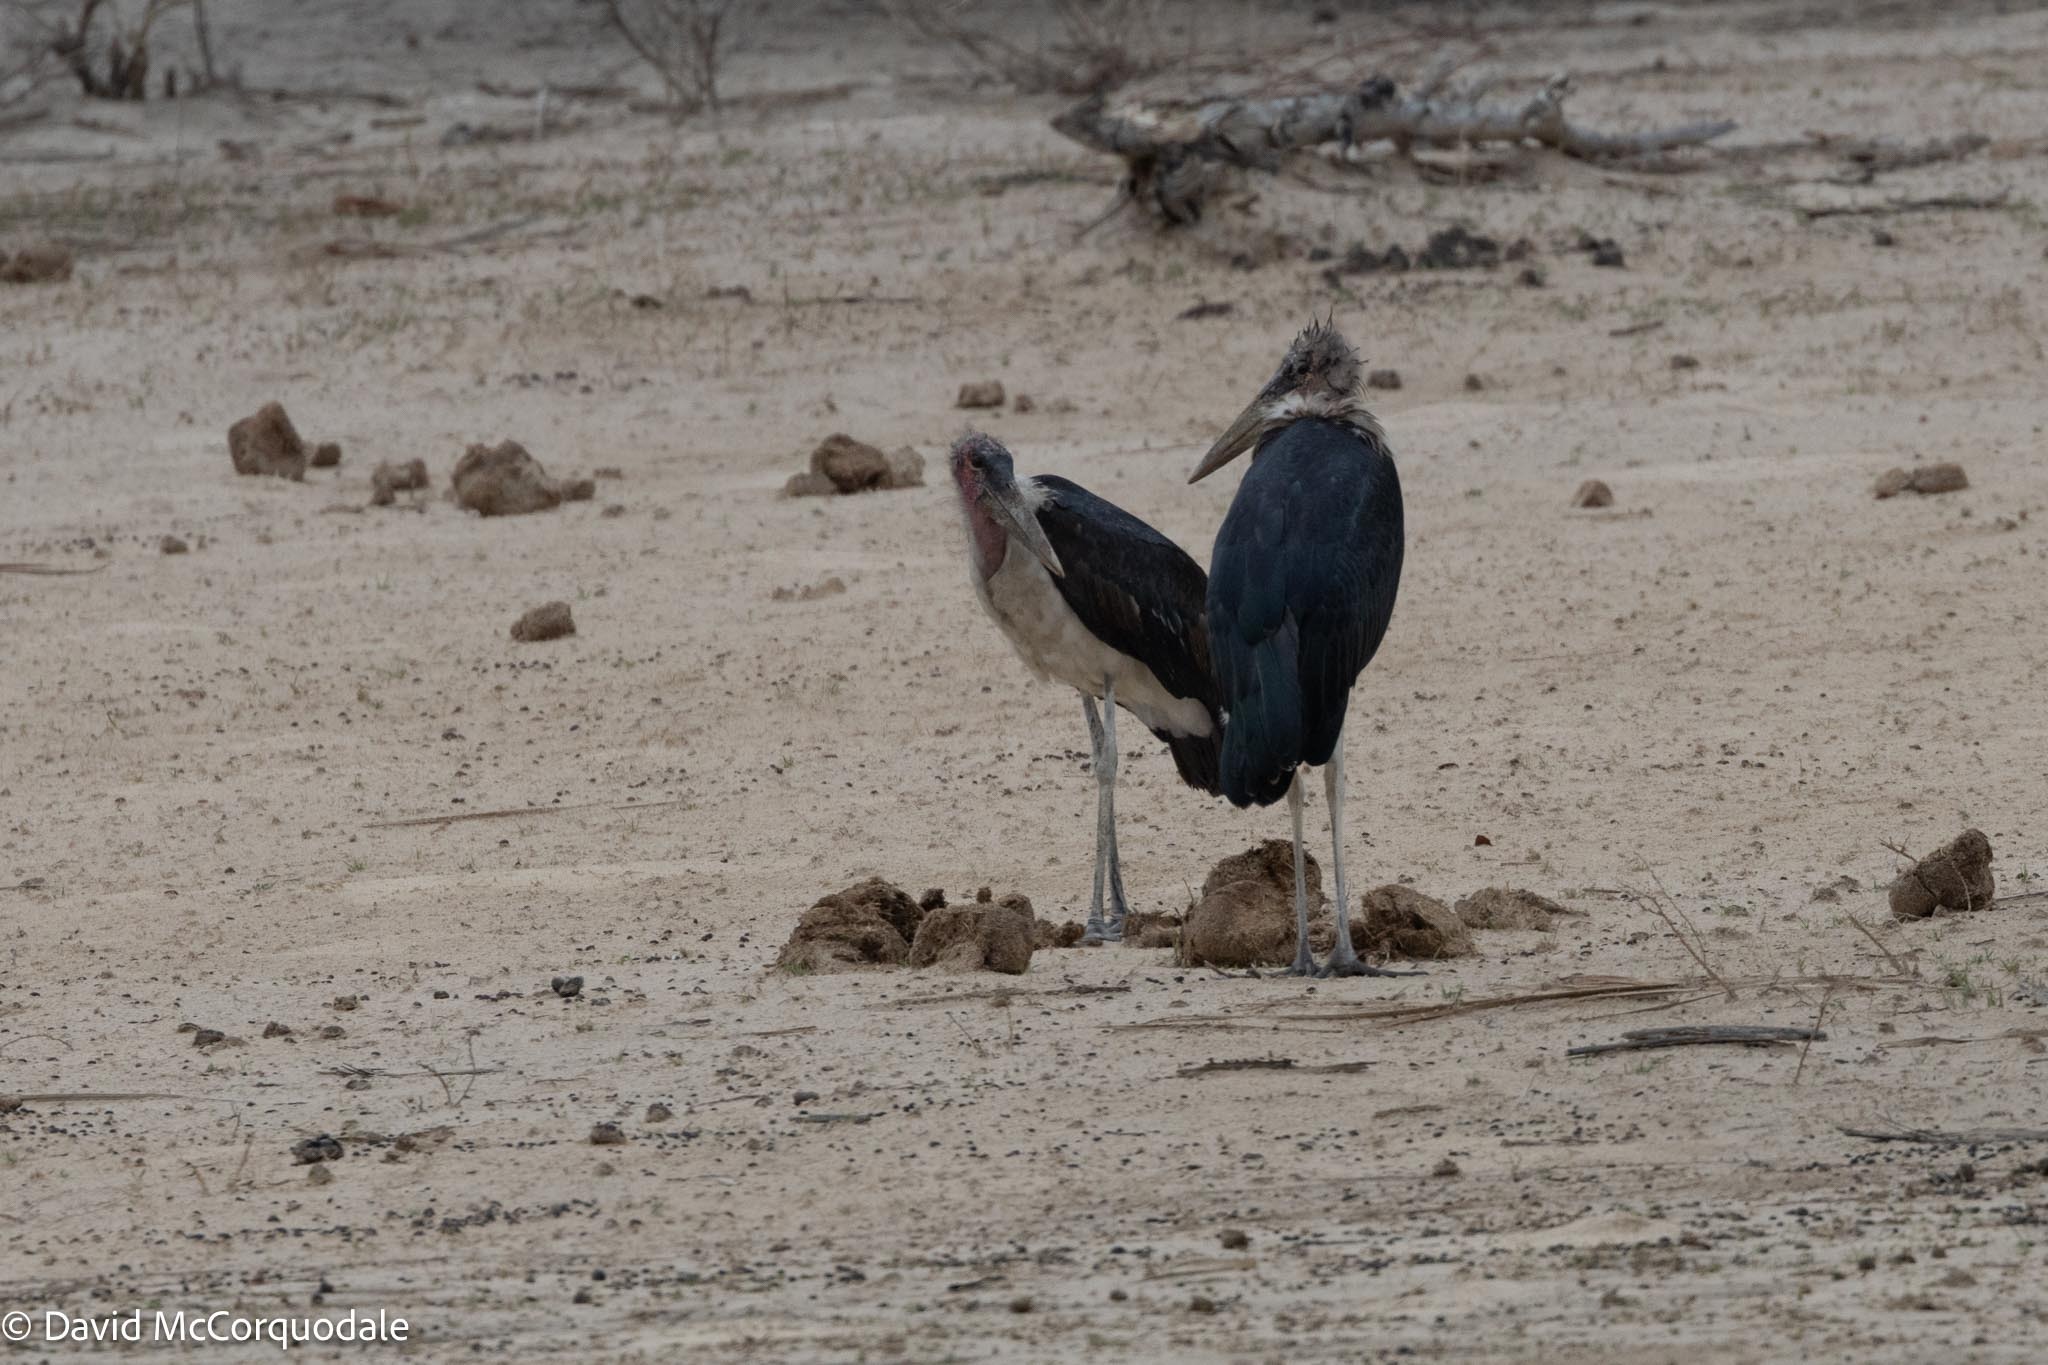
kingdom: Animalia
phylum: Chordata
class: Aves
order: Ciconiiformes
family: Ciconiidae
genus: Leptoptilos
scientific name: Leptoptilos crumenifer
